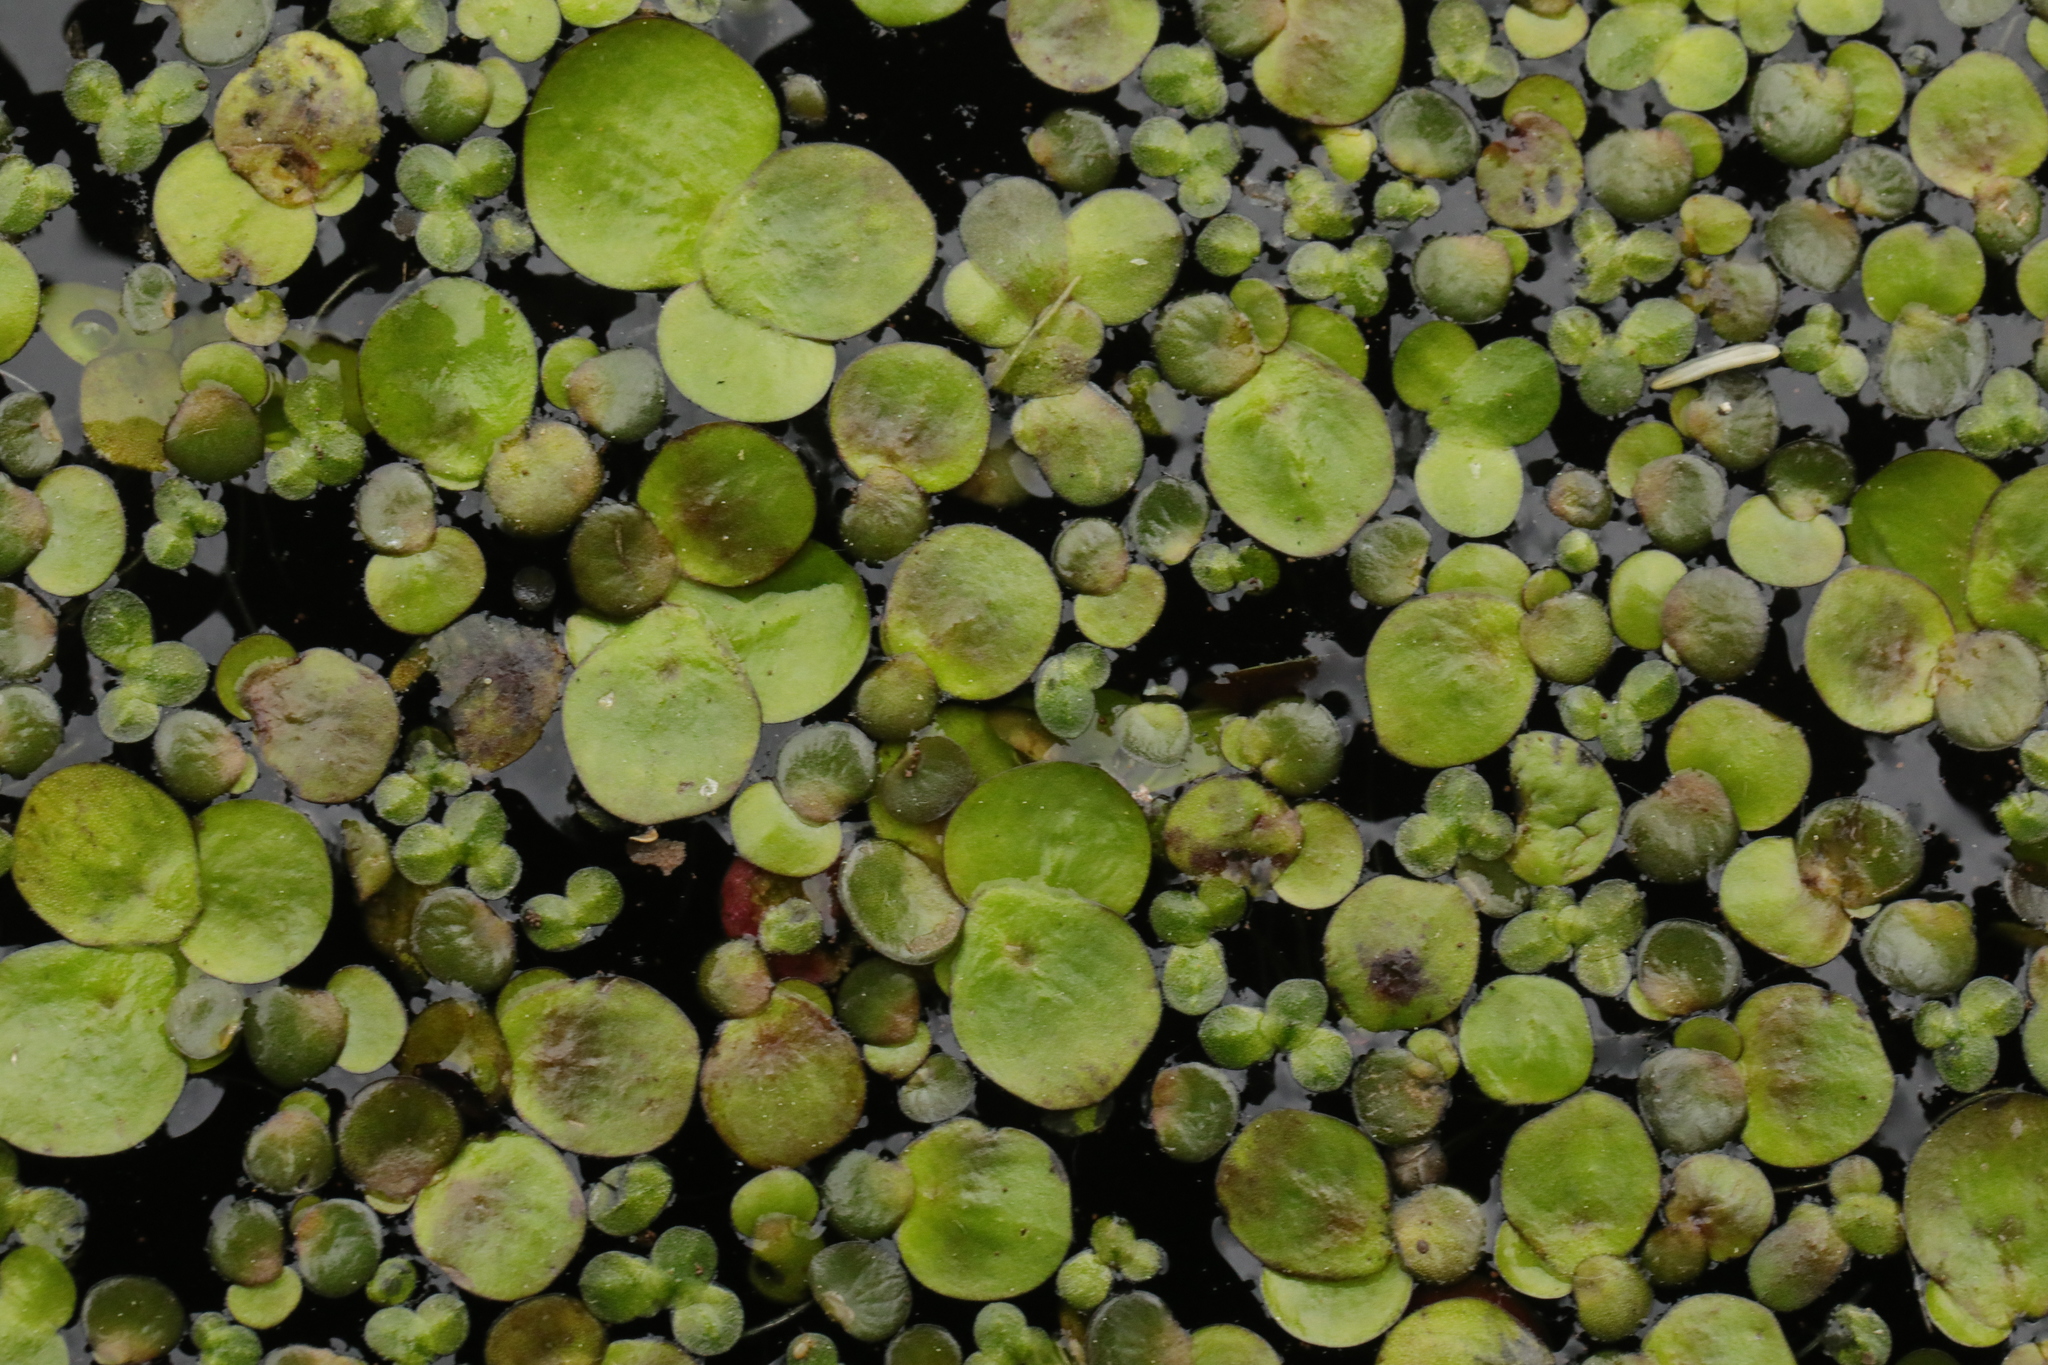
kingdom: Plantae
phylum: Tracheophyta
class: Liliopsida
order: Alismatales
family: Araceae
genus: Spirodela
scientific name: Spirodela polyrhiza
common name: Great duckweed
